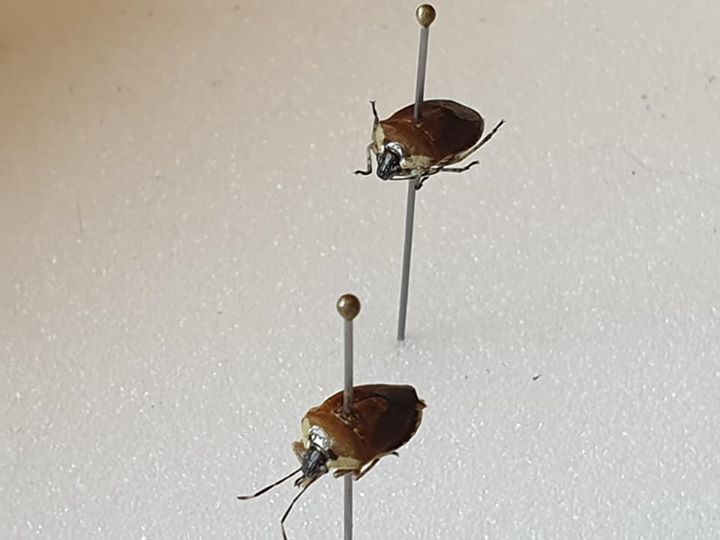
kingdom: Animalia
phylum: Arthropoda
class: Insecta
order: Hemiptera
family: Pentatomidae
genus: Monteithiella
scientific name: Monteithiella
